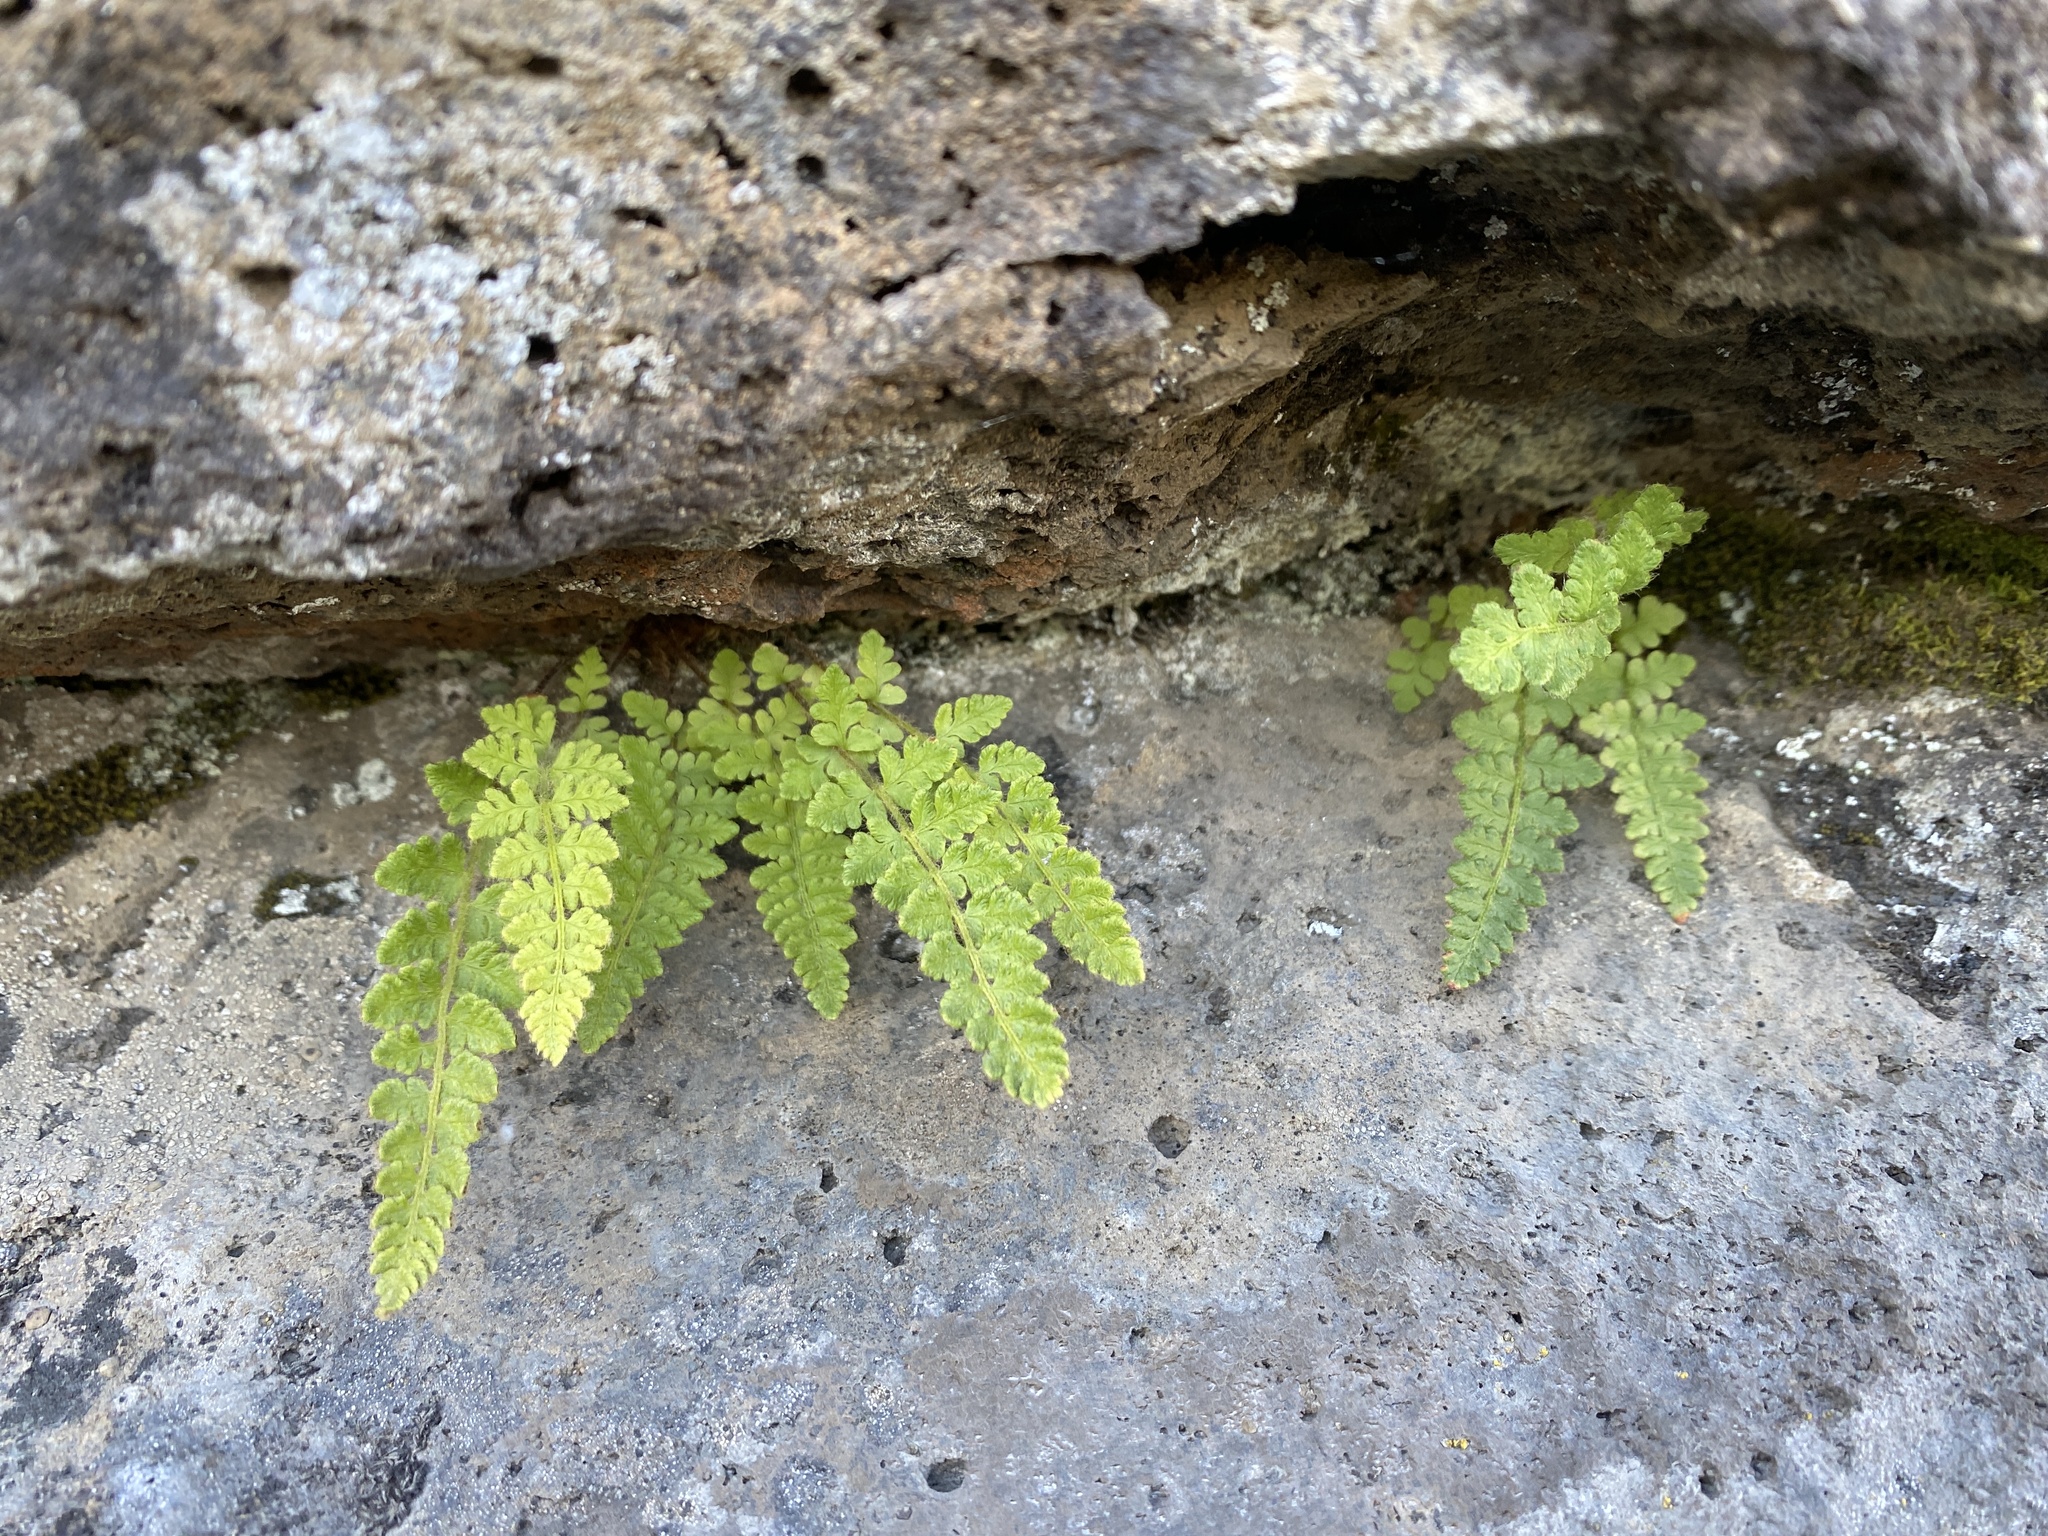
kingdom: Plantae
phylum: Tracheophyta
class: Polypodiopsida
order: Polypodiales
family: Woodsiaceae
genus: Woodsia
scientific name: Woodsia ilvensis
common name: Fragrant woodsia
